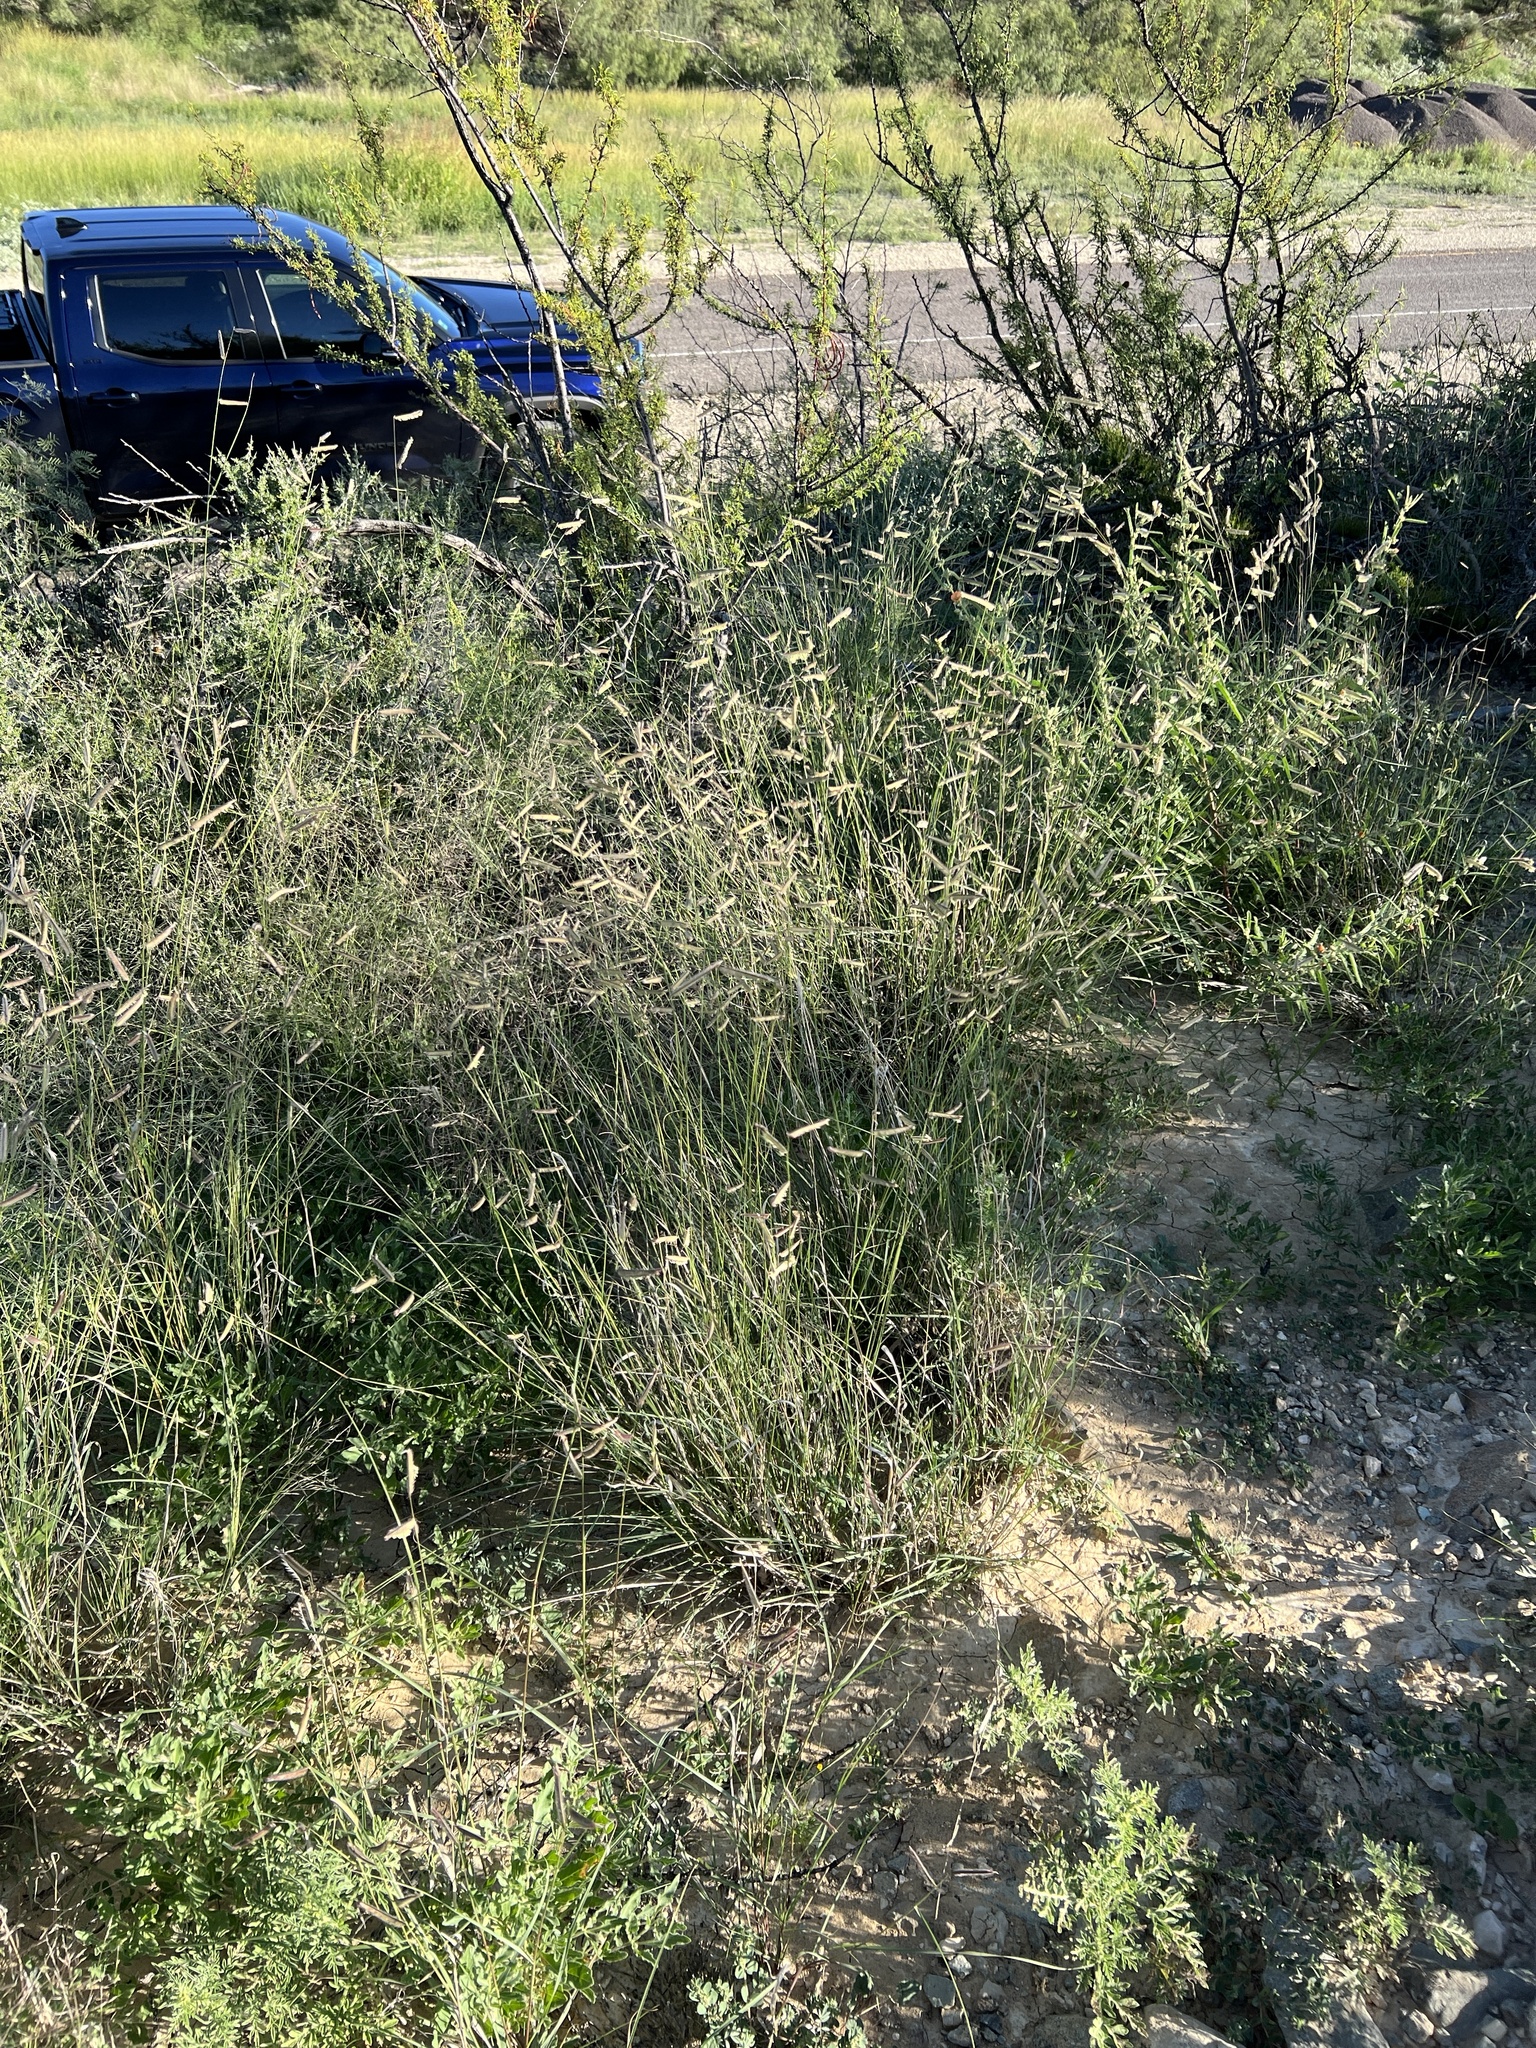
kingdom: Plantae
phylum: Tracheophyta
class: Liliopsida
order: Poales
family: Poaceae
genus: Bouteloua
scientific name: Bouteloua gracilis
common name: Blue grama
